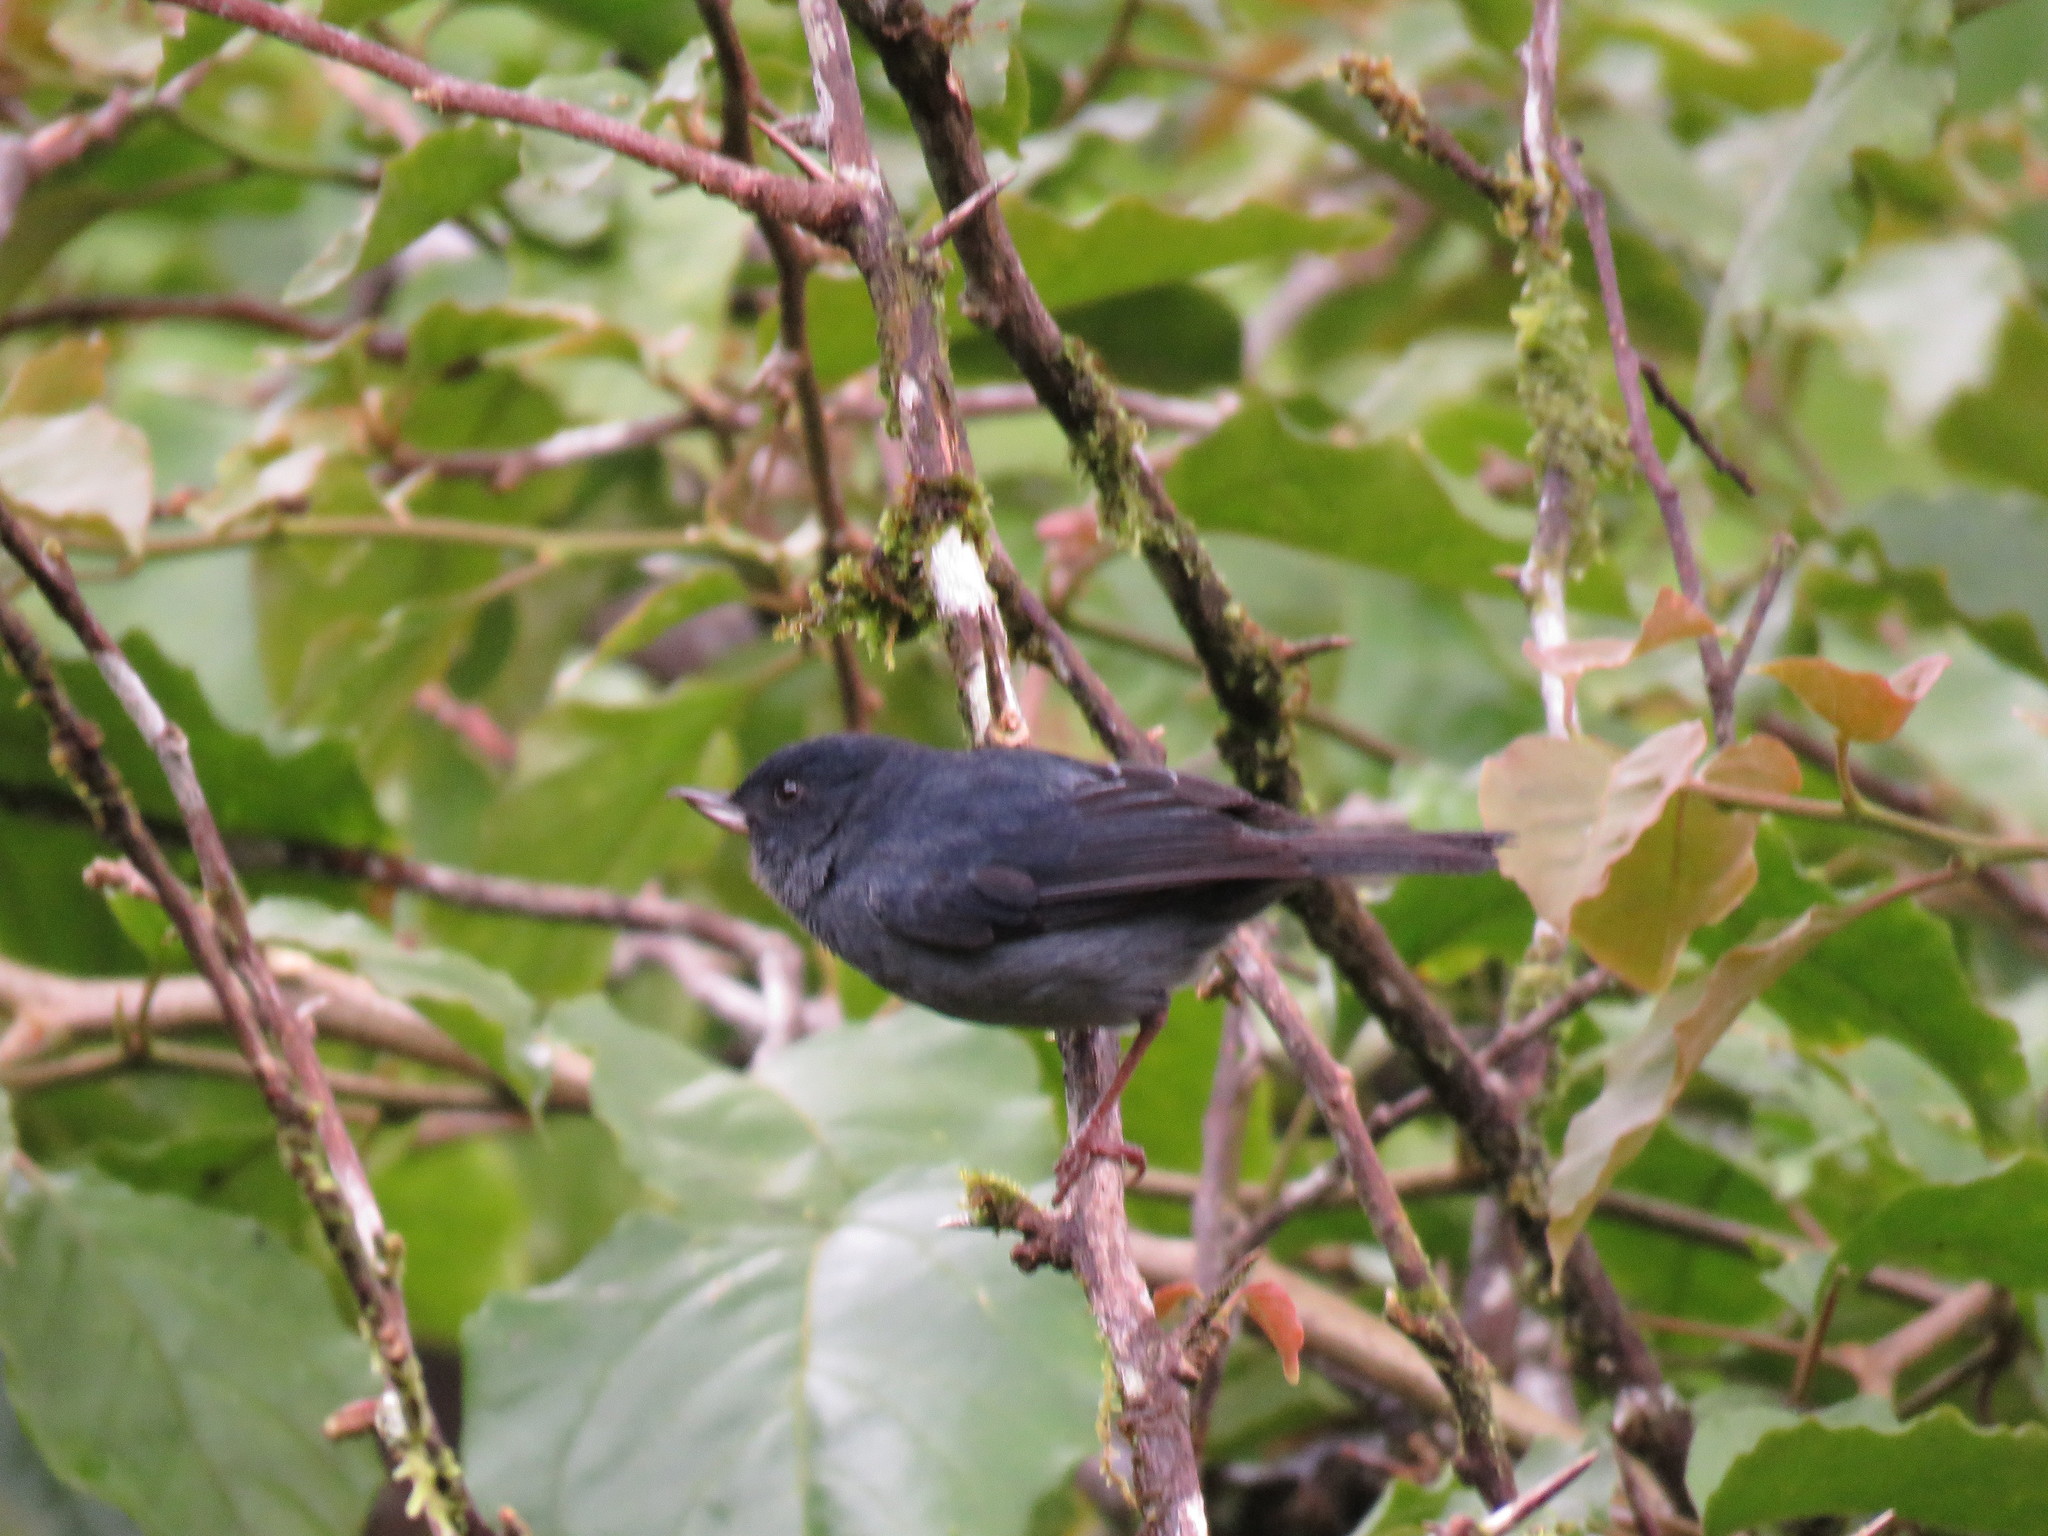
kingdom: Animalia
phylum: Chordata
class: Aves
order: Passeriformes
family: Thraupidae
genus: Diglossa
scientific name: Diglossa plumbea
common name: Slaty flowerpiercer
